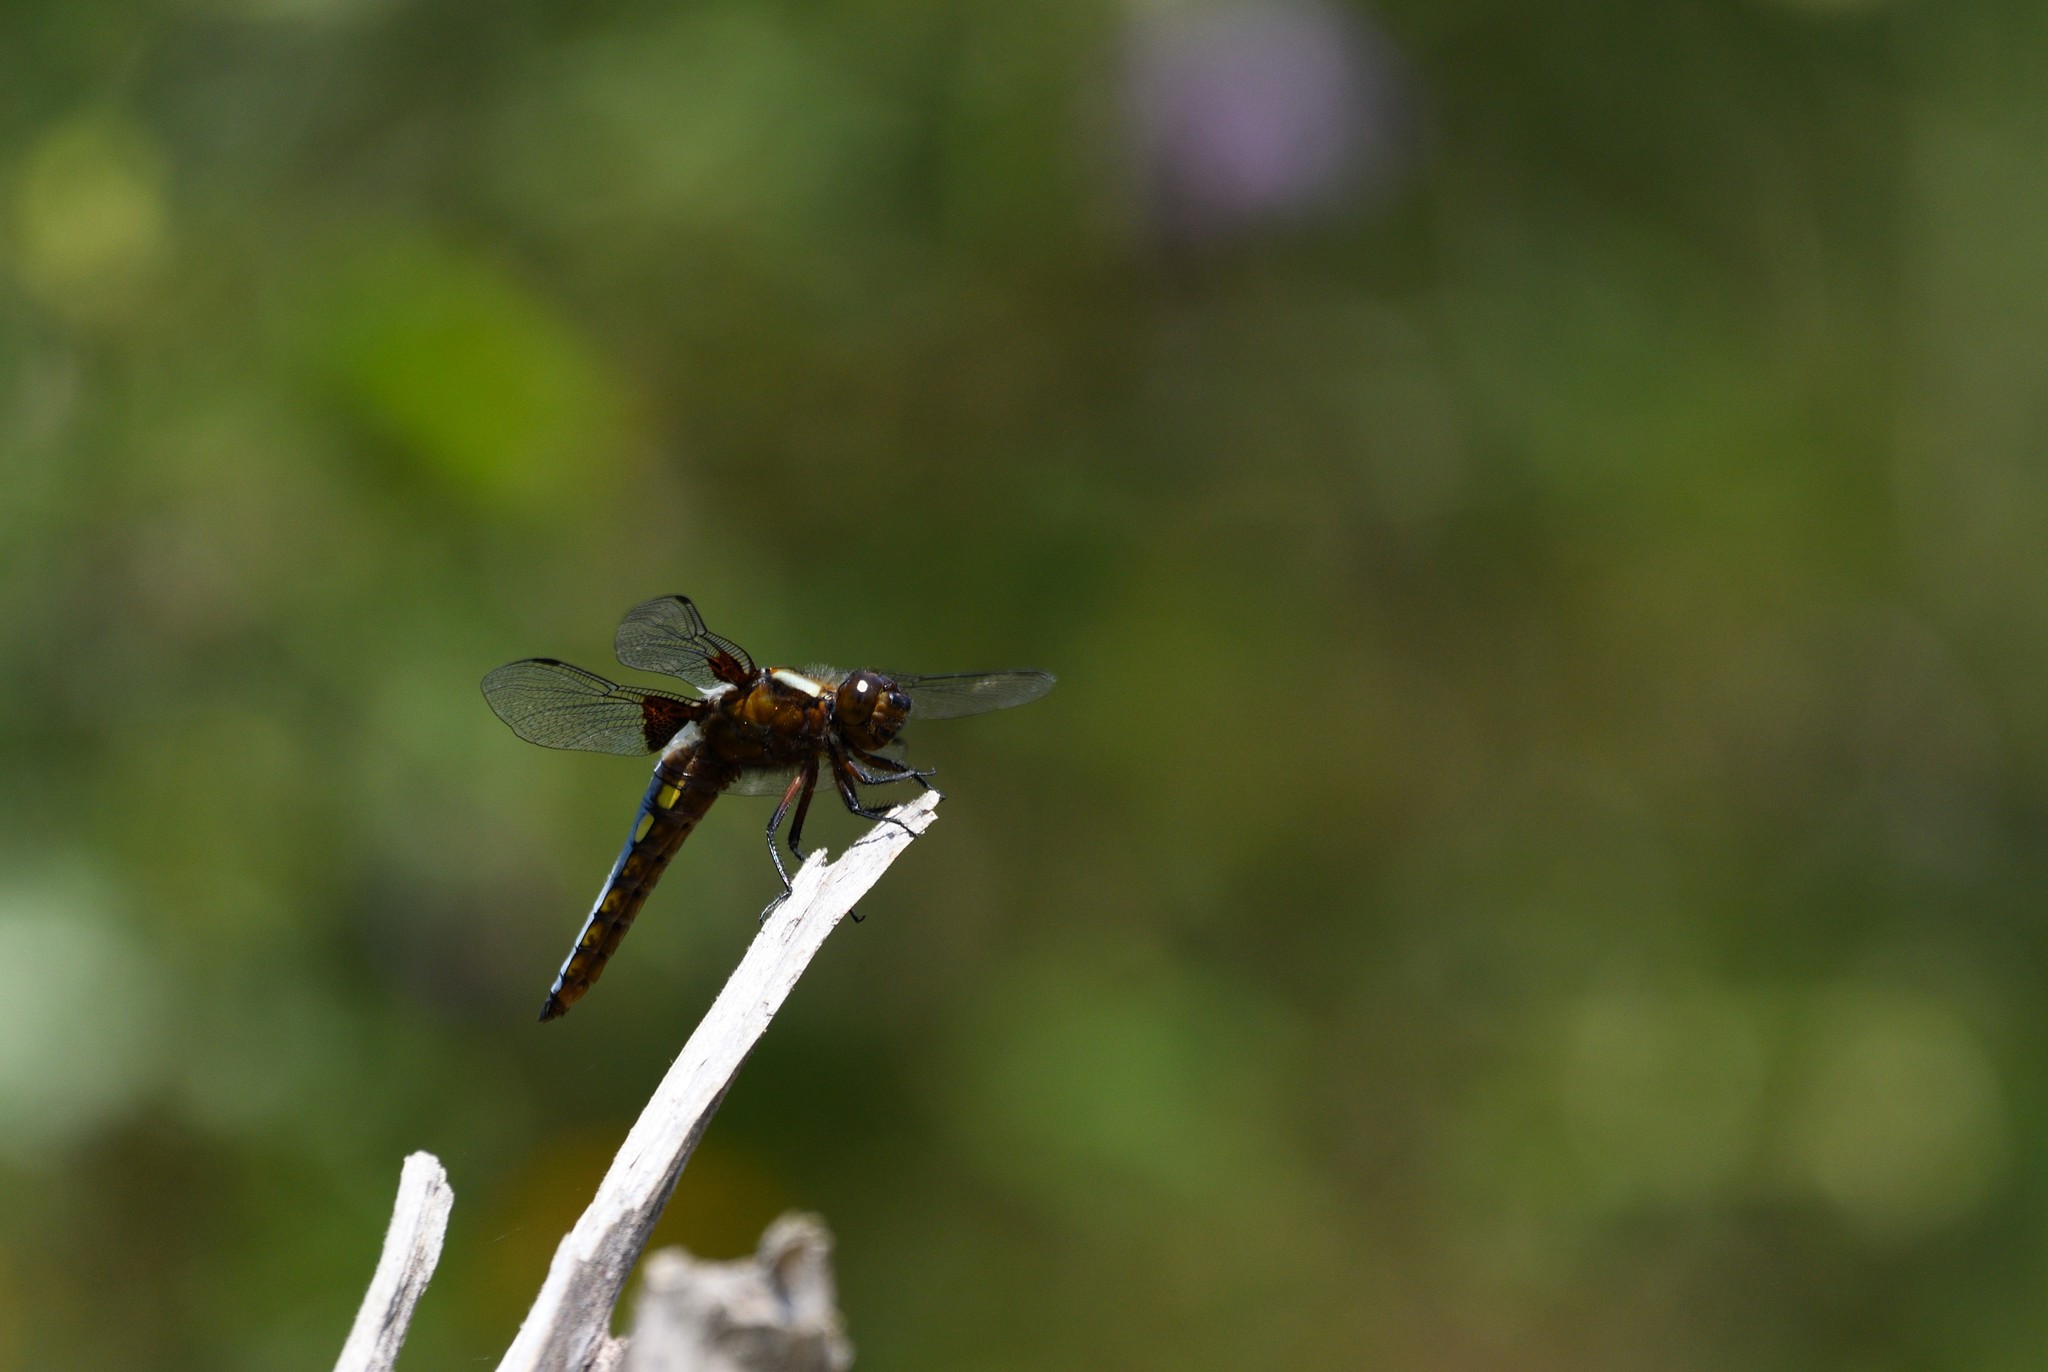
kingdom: Animalia
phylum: Arthropoda
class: Insecta
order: Odonata
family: Libellulidae
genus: Libellula
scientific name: Libellula depressa
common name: Broad-bodied chaser
